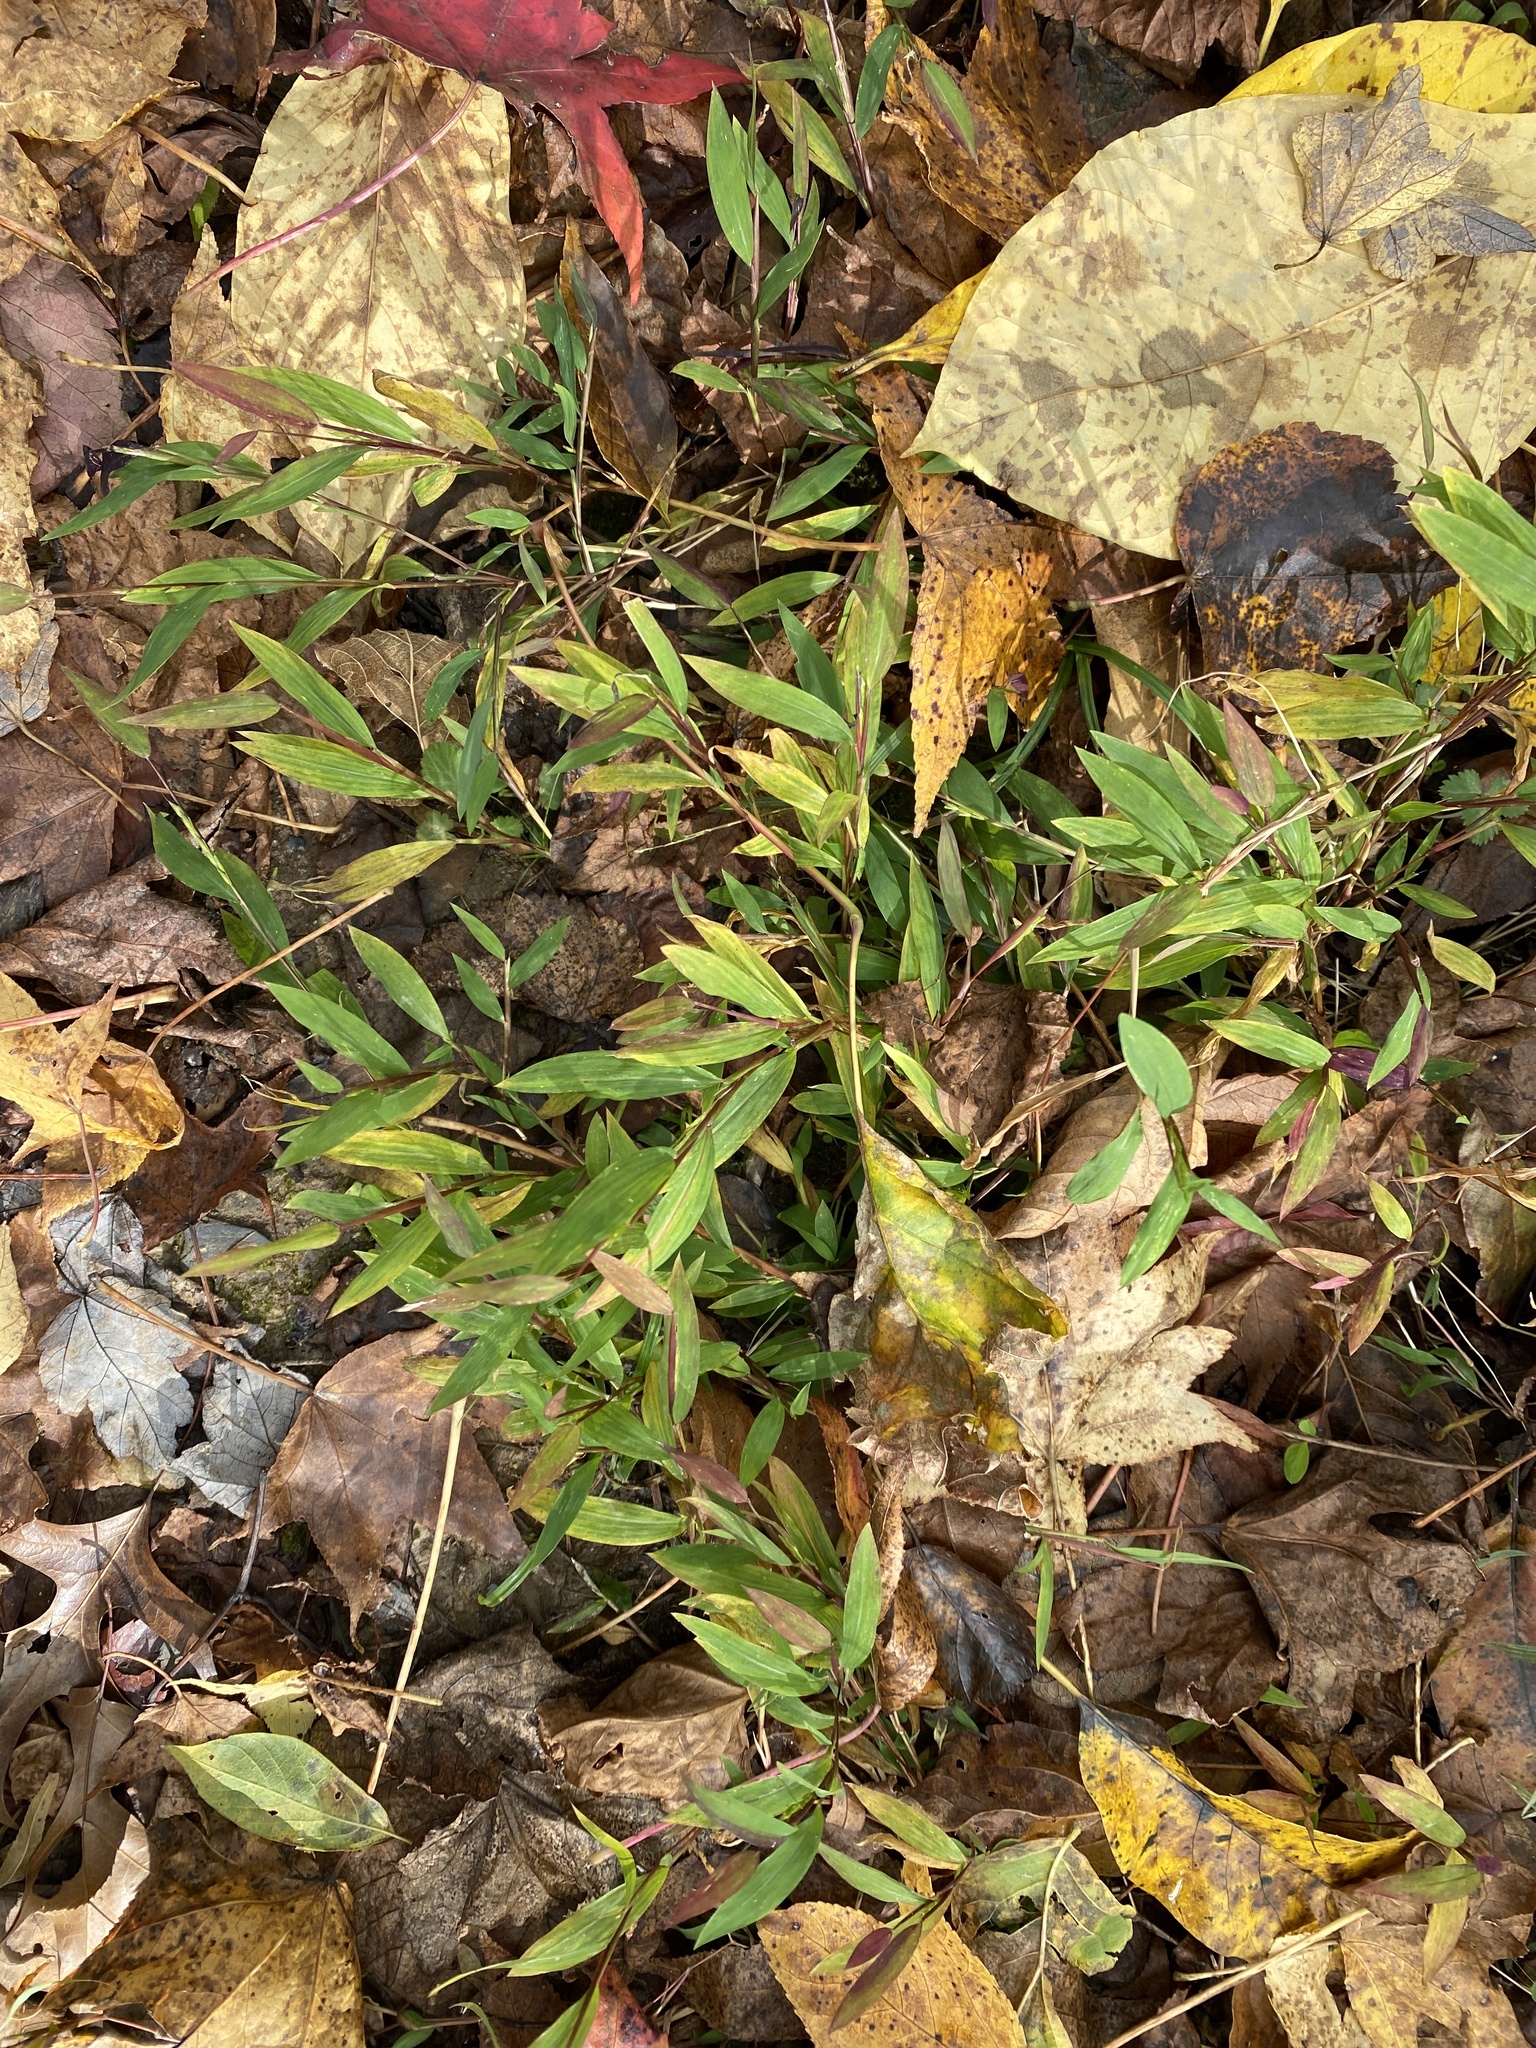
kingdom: Plantae
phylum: Tracheophyta
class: Liliopsida
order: Poales
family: Poaceae
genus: Microstegium
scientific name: Microstegium vimineum
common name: Japanese stiltgrass
